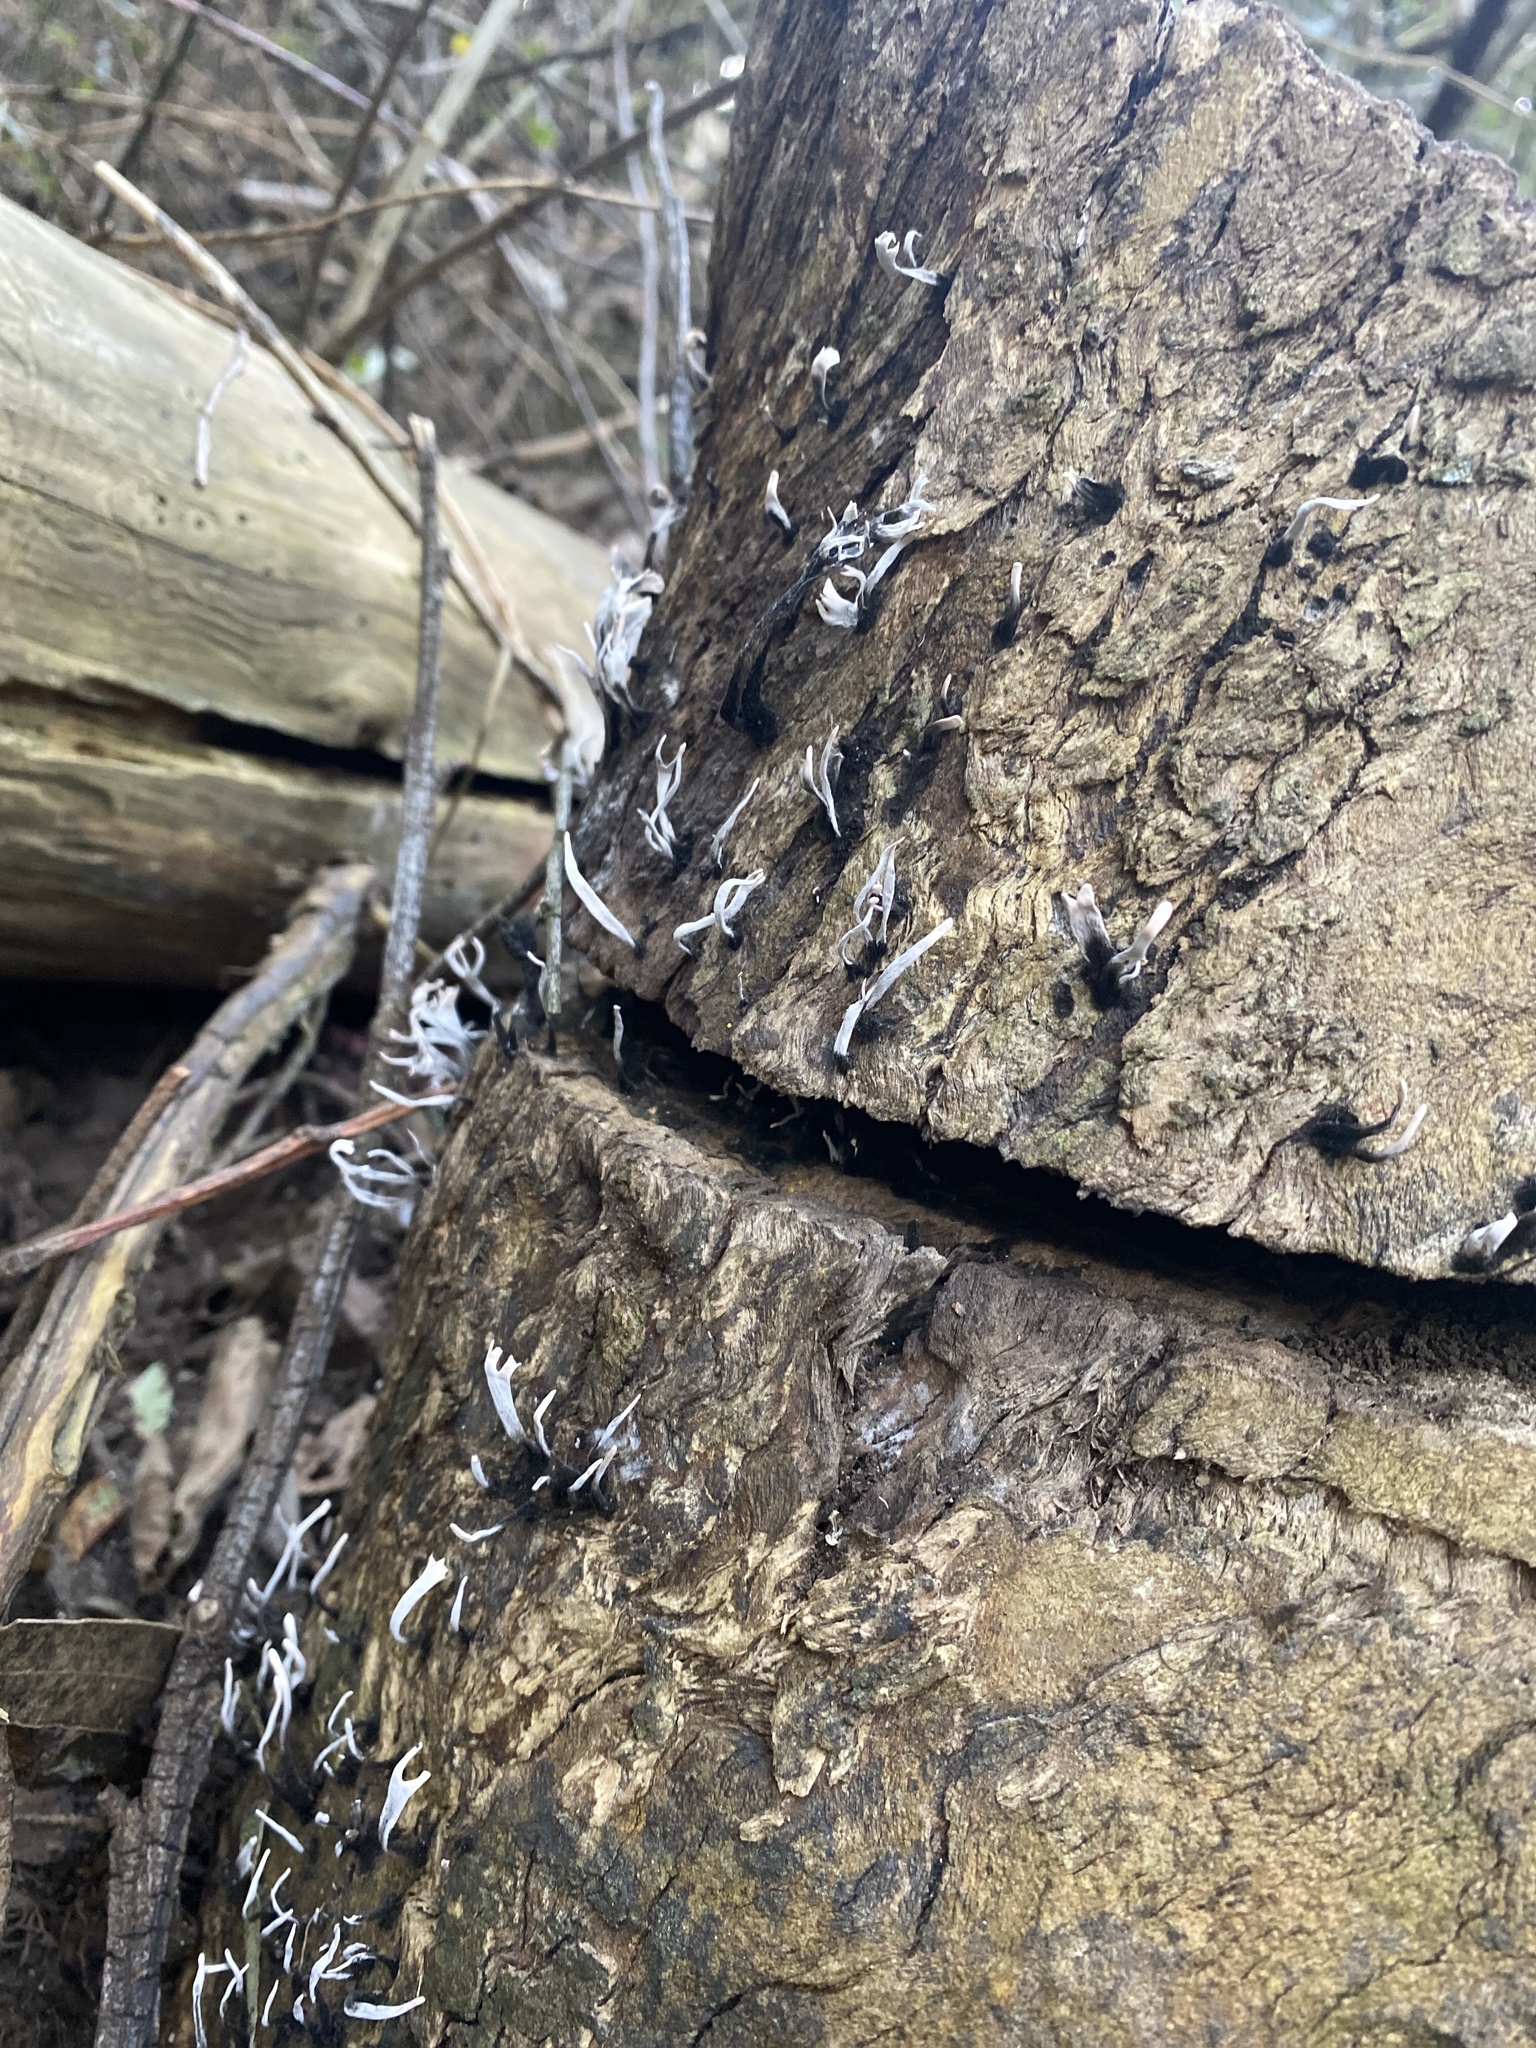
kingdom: Fungi
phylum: Ascomycota
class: Sordariomycetes
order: Xylariales
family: Xylariaceae
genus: Xylaria
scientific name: Xylaria hypoxylon
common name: Candle-snuff fungus
